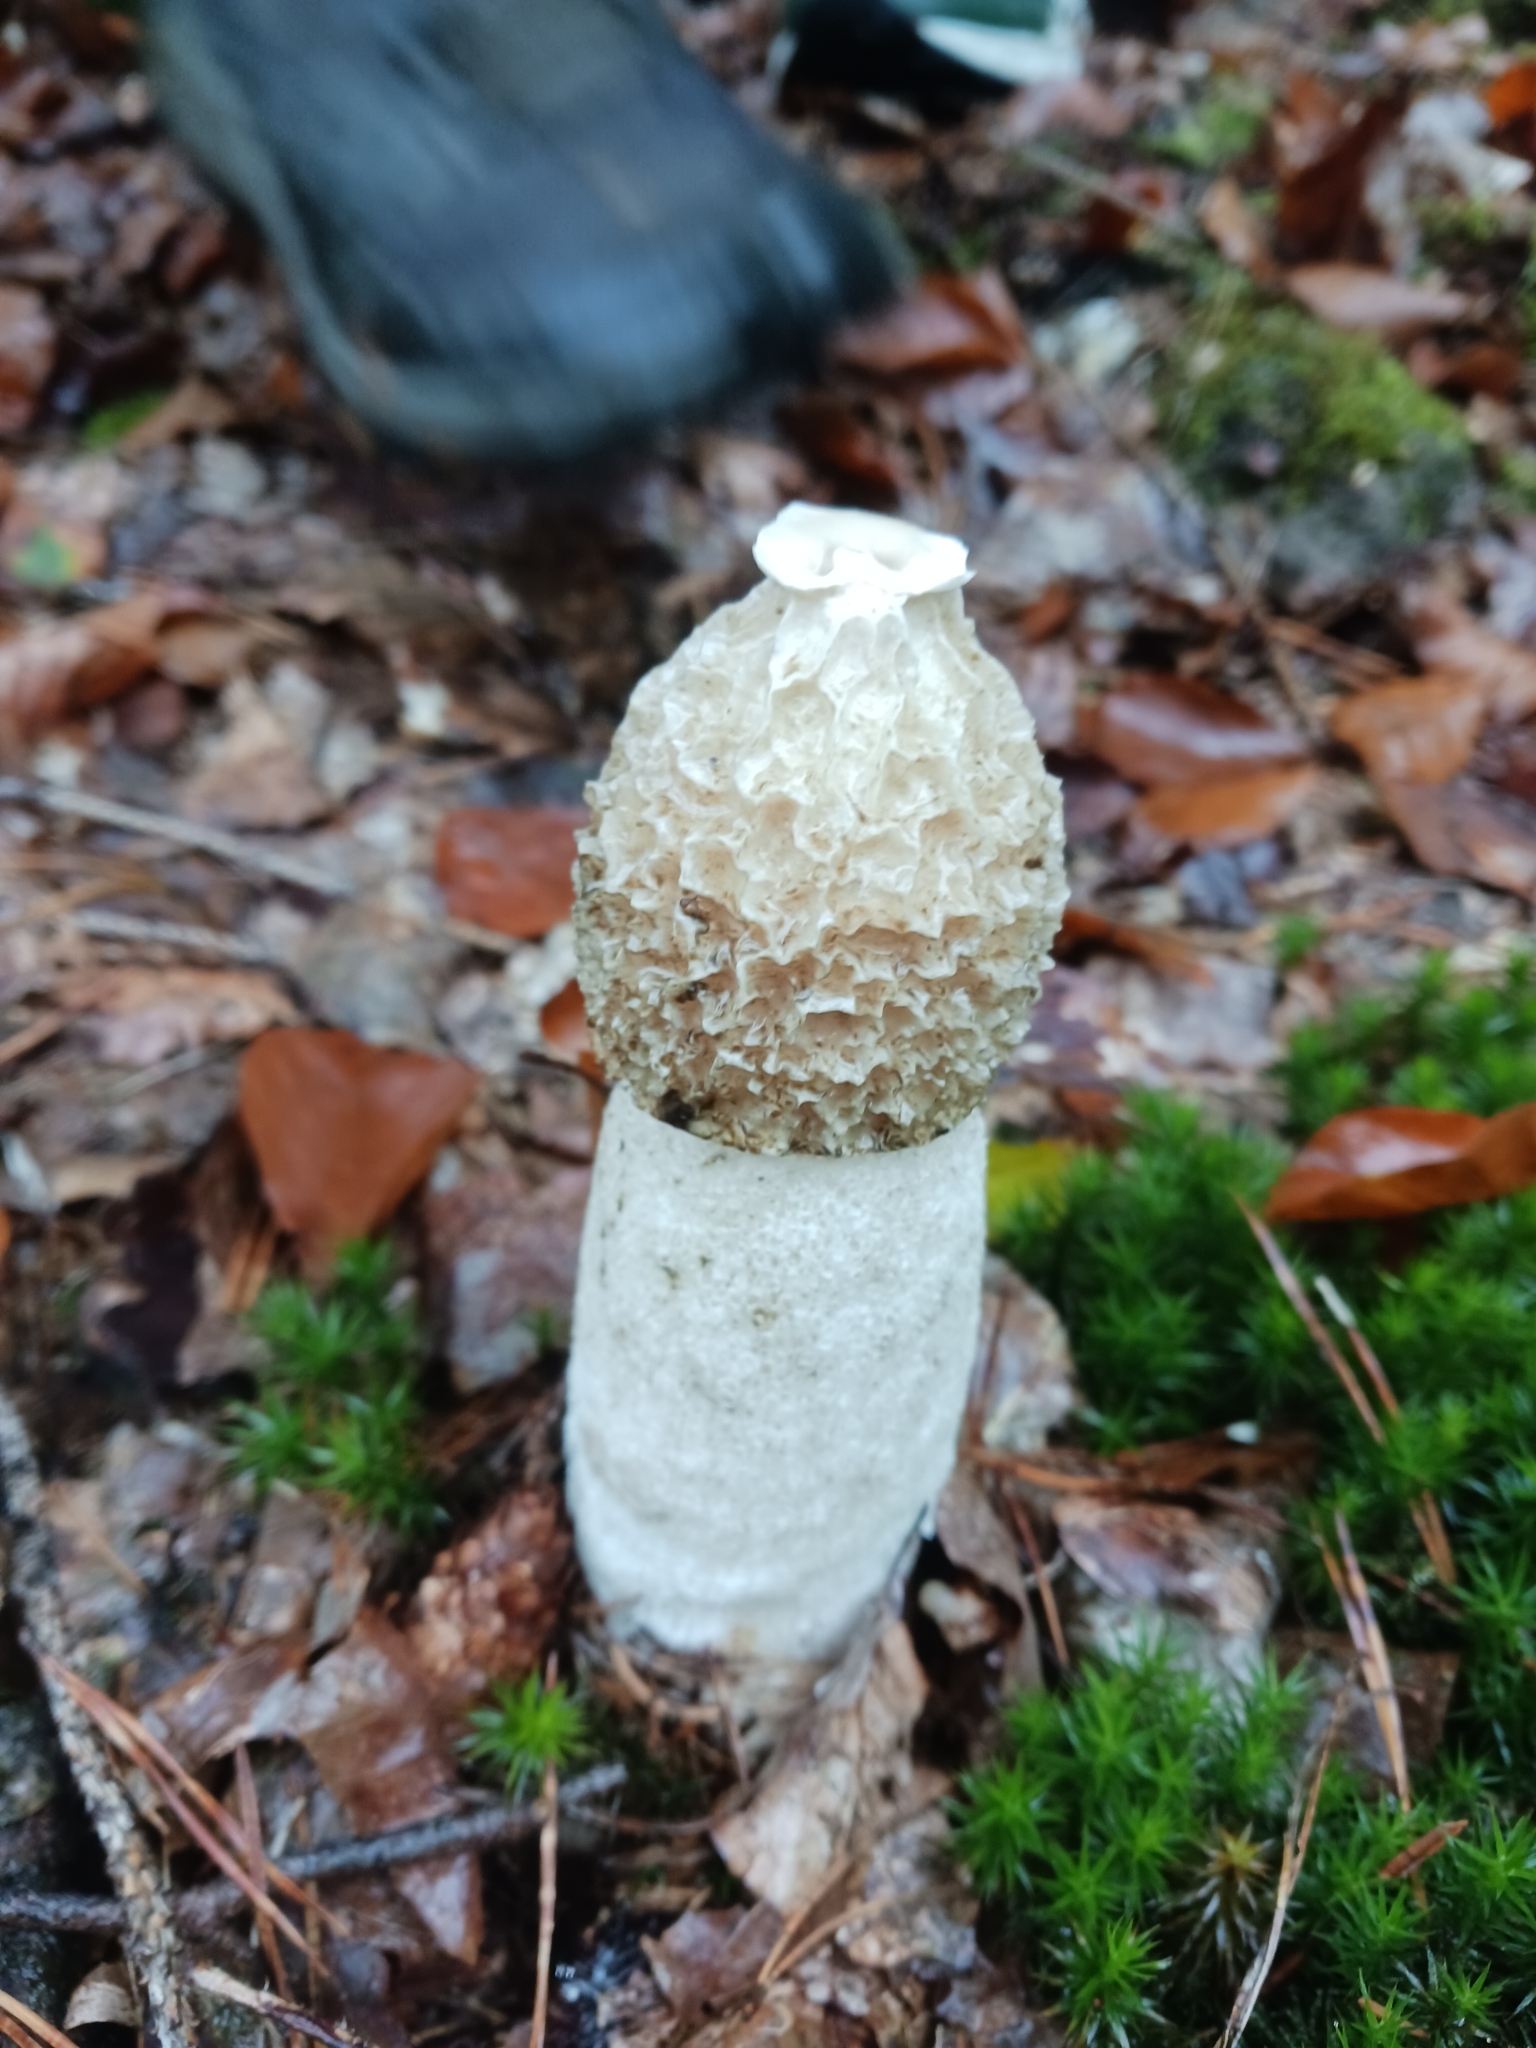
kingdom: Fungi
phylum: Basidiomycota
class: Agaricomycetes
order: Phallales
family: Phallaceae
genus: Phallus
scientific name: Phallus impudicus
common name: Common stinkhorn
